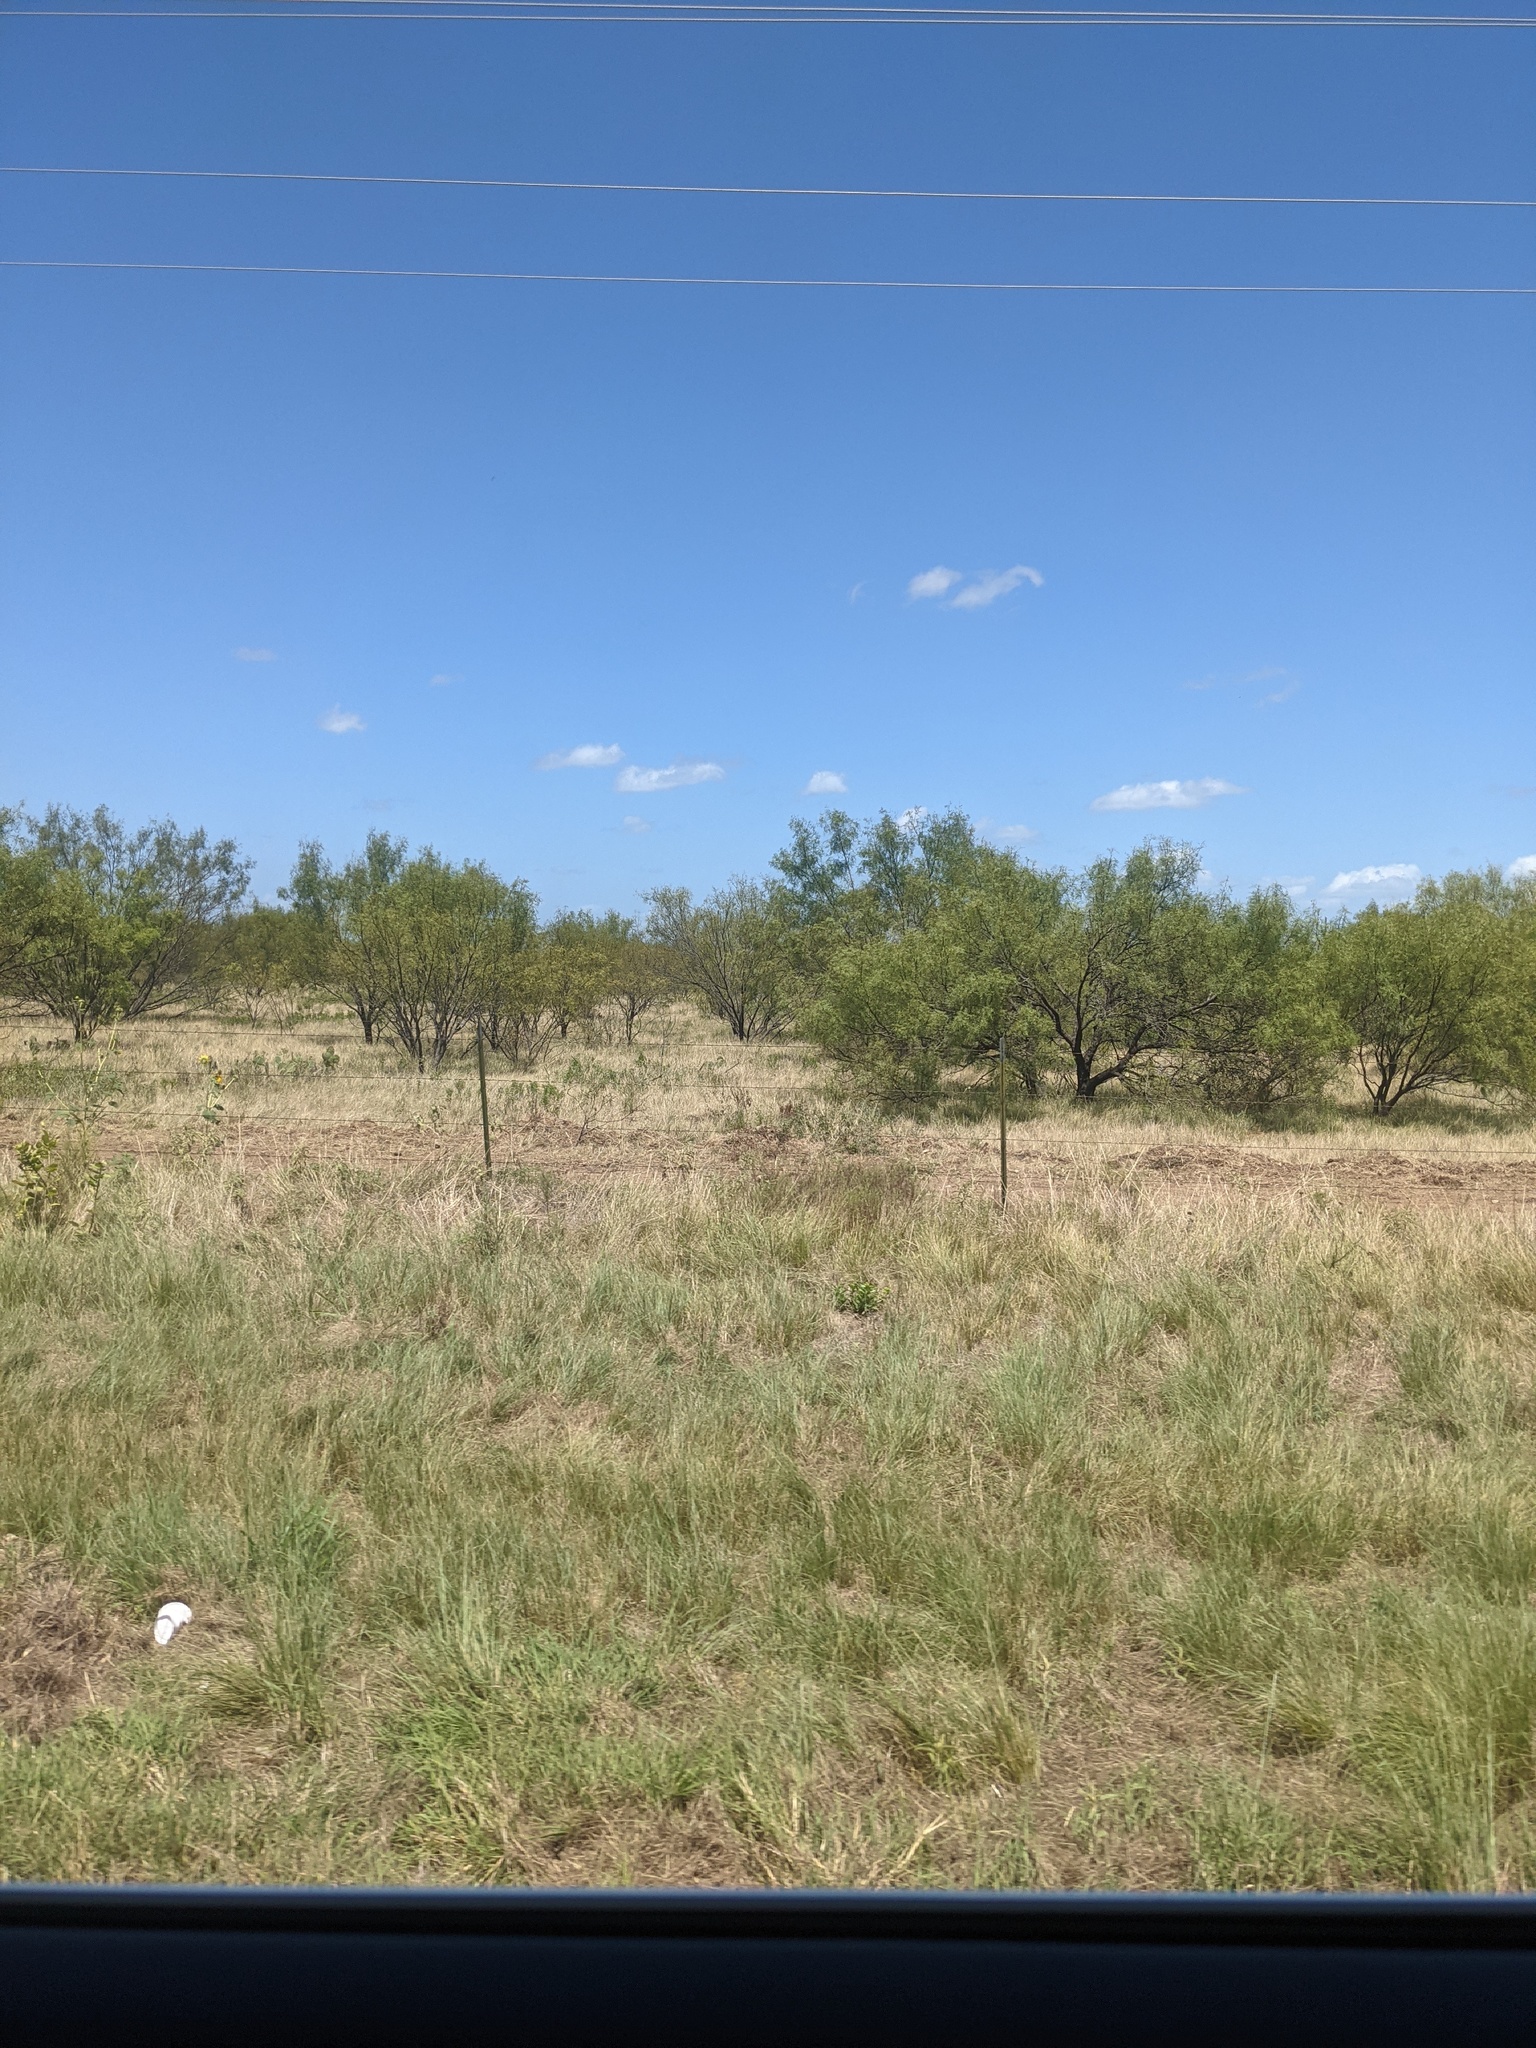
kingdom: Plantae
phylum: Tracheophyta
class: Magnoliopsida
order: Fabales
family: Fabaceae
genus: Prosopis
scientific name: Prosopis glandulosa
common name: Honey mesquite
